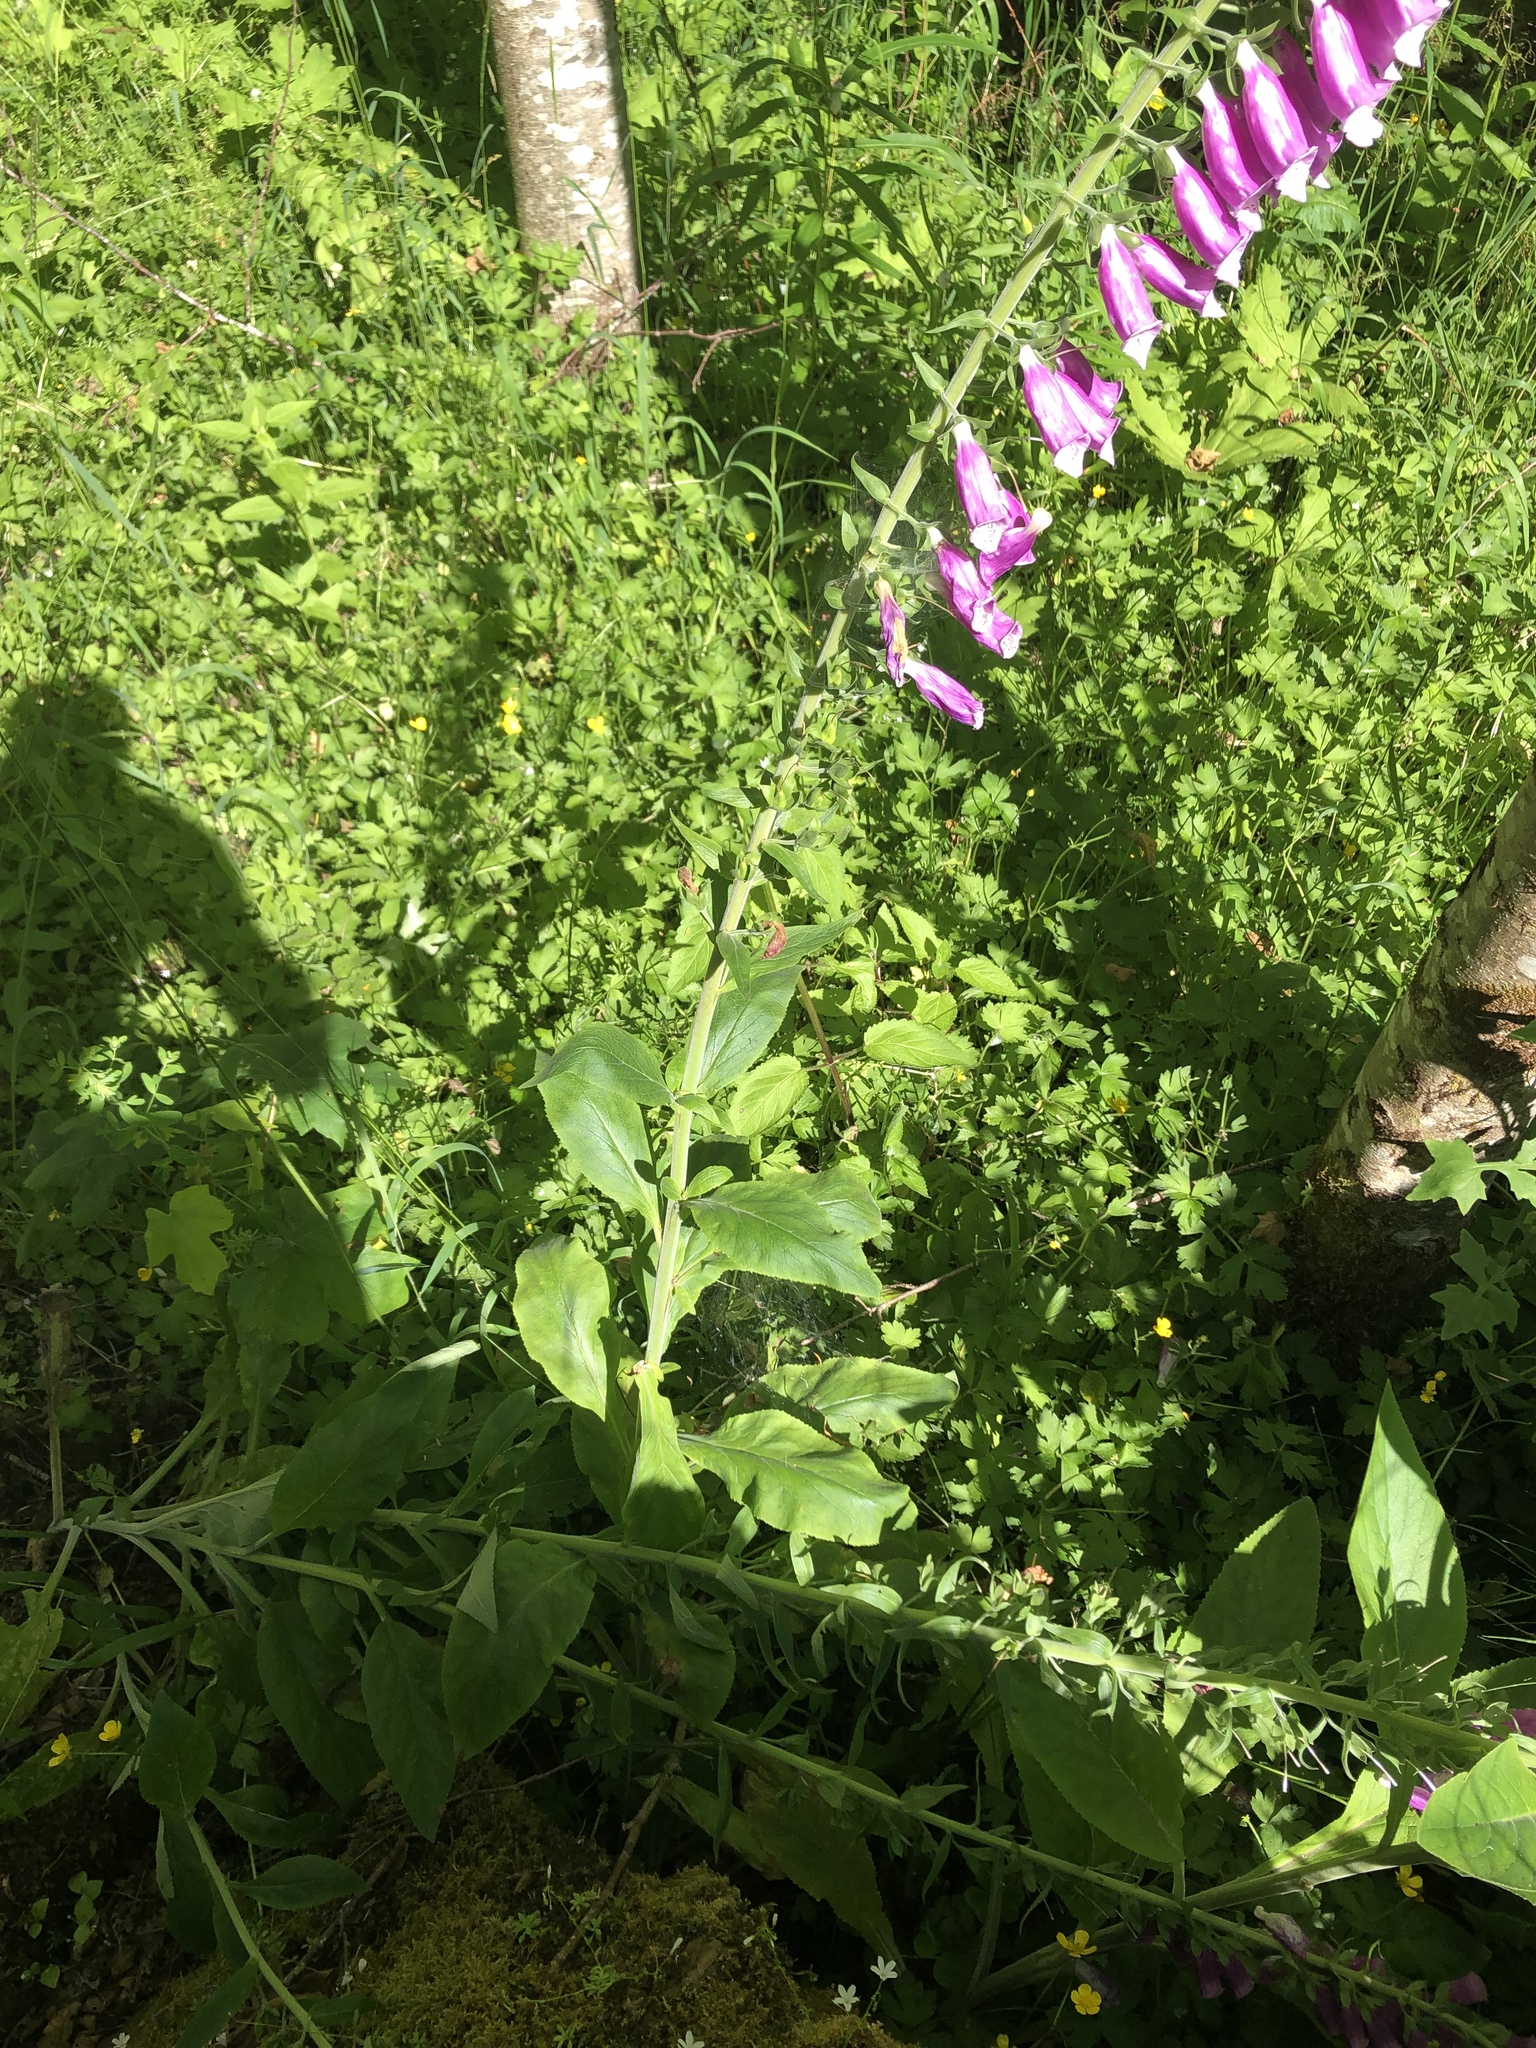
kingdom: Plantae
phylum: Tracheophyta
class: Magnoliopsida
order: Lamiales
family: Plantaginaceae
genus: Digitalis
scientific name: Digitalis purpurea
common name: Foxglove
